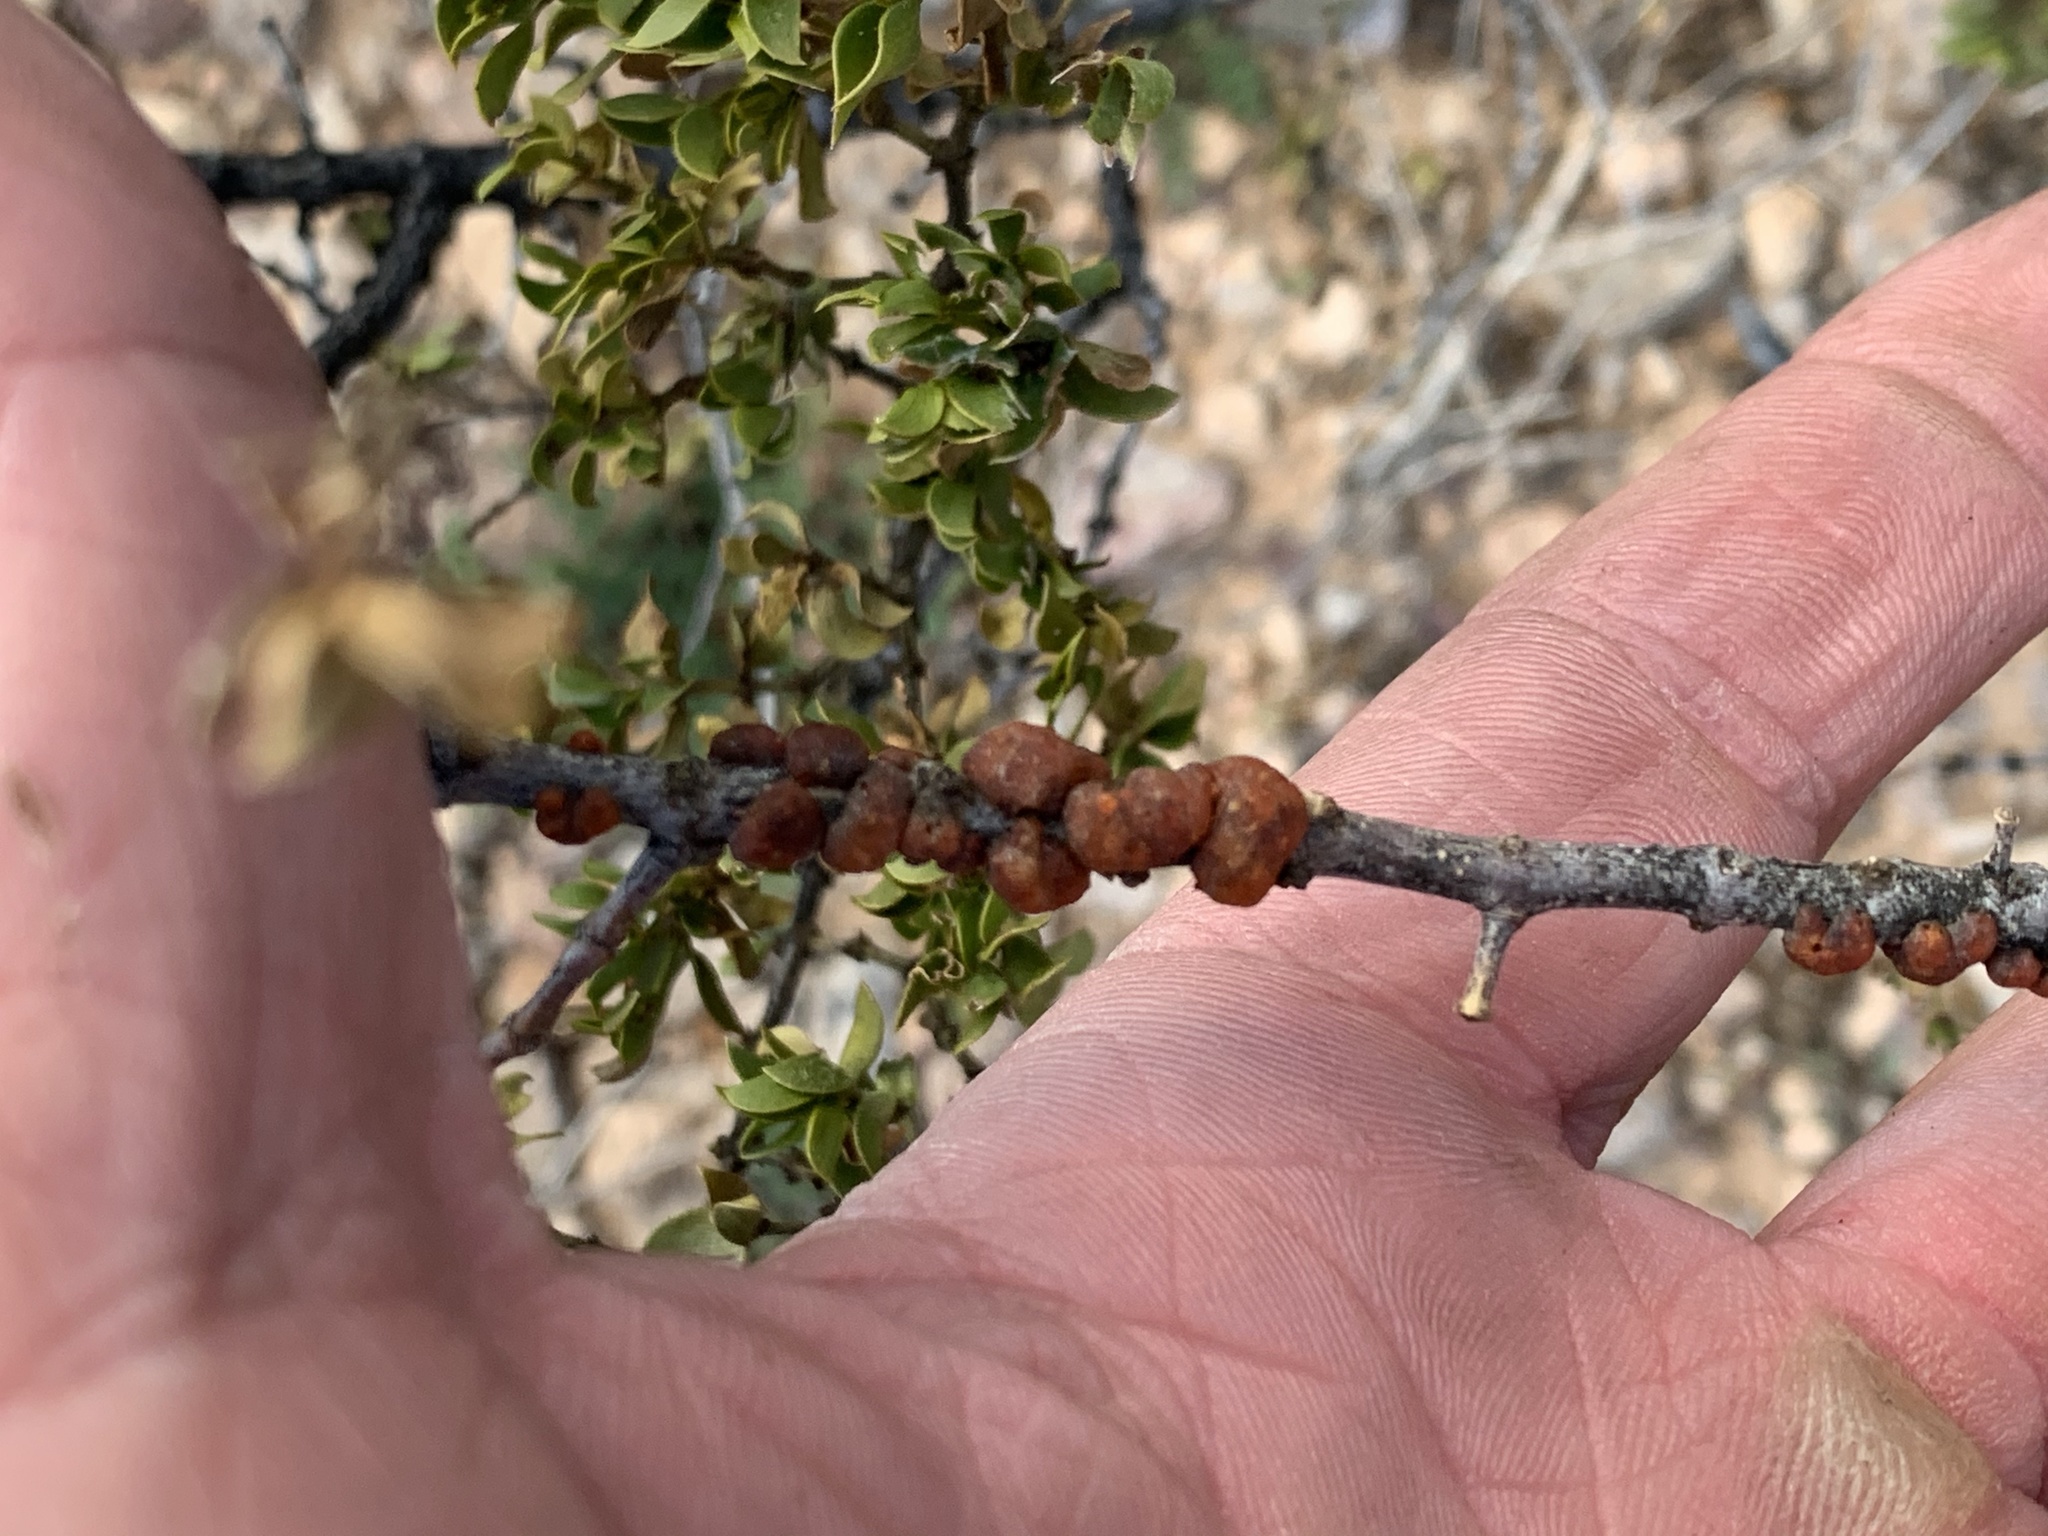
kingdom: Animalia
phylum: Arthropoda
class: Insecta
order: Hemiptera
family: Kerriidae
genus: Tachardiella
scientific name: Tachardiella larreae
